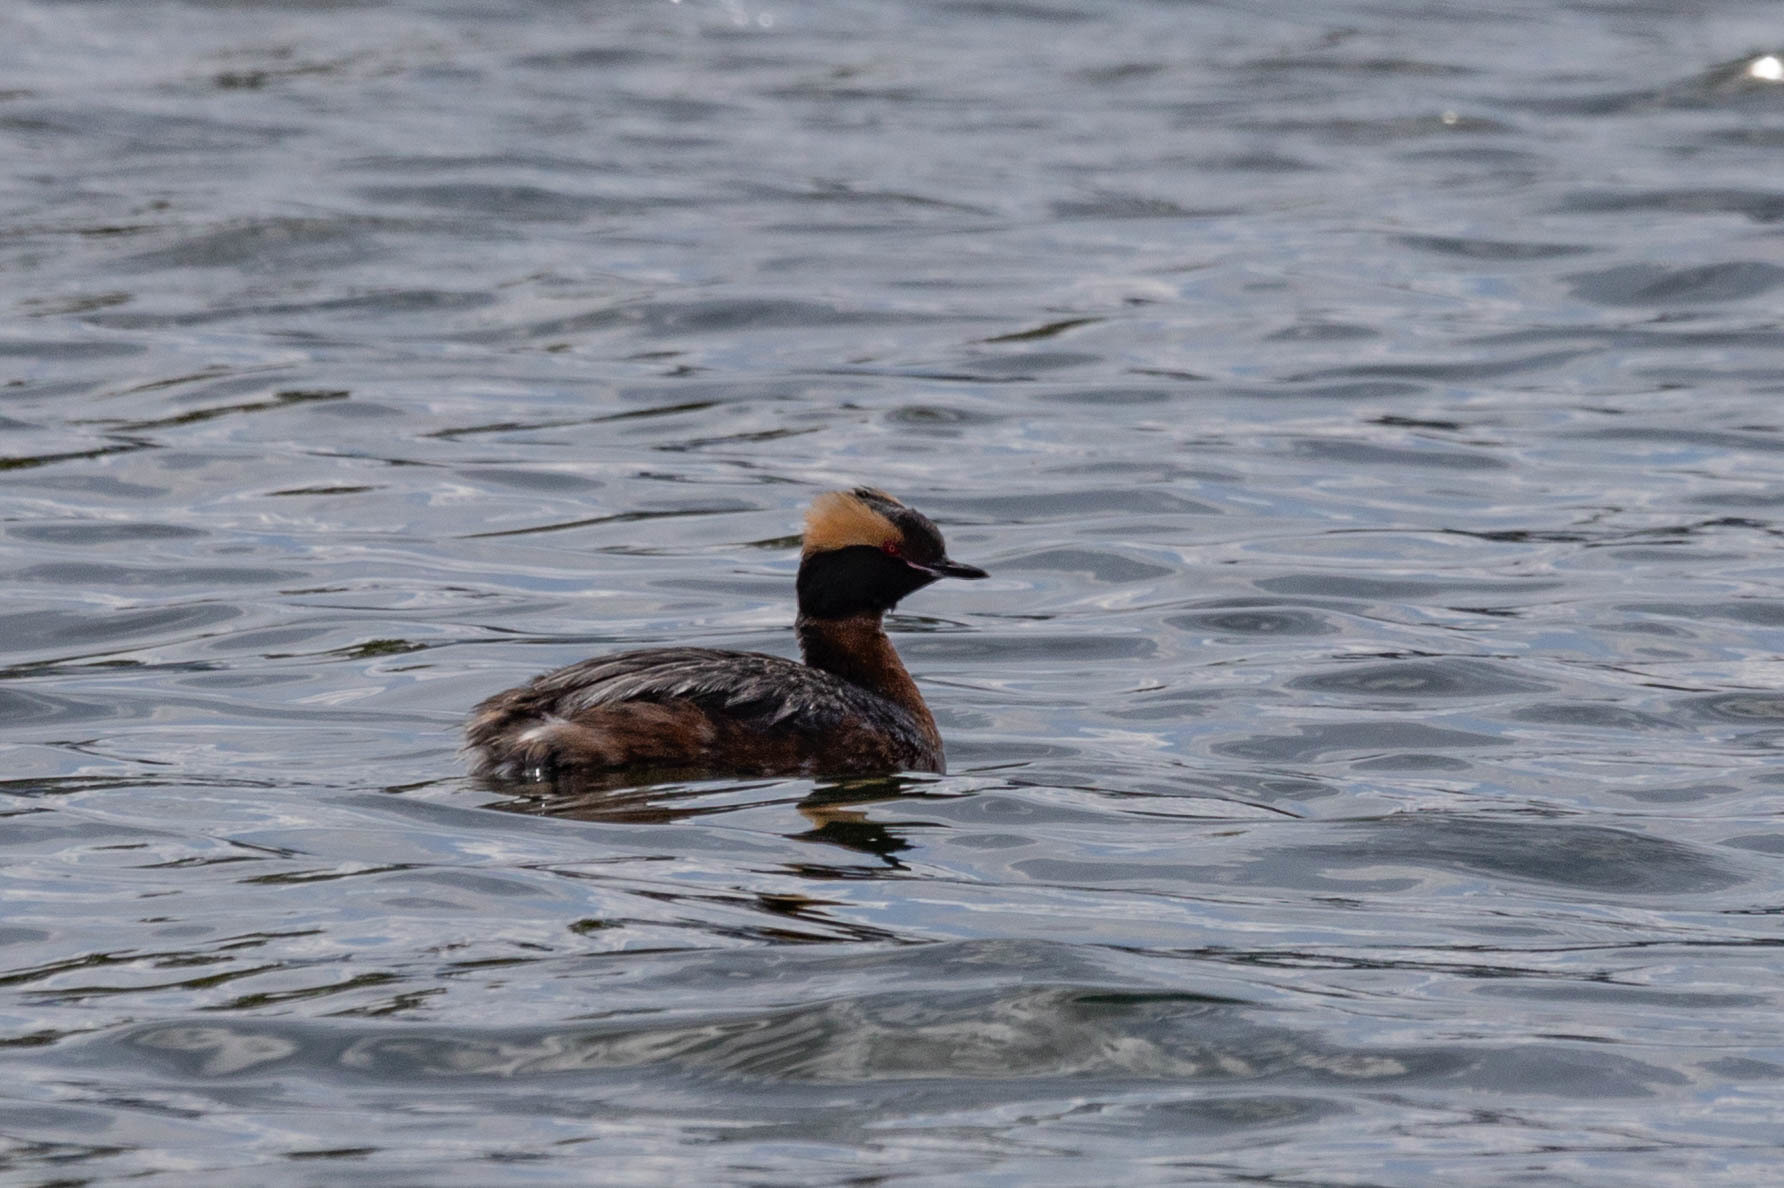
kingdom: Animalia
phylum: Chordata
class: Aves
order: Podicipediformes
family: Podicipedidae
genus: Podiceps
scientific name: Podiceps auritus
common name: Horned grebe
